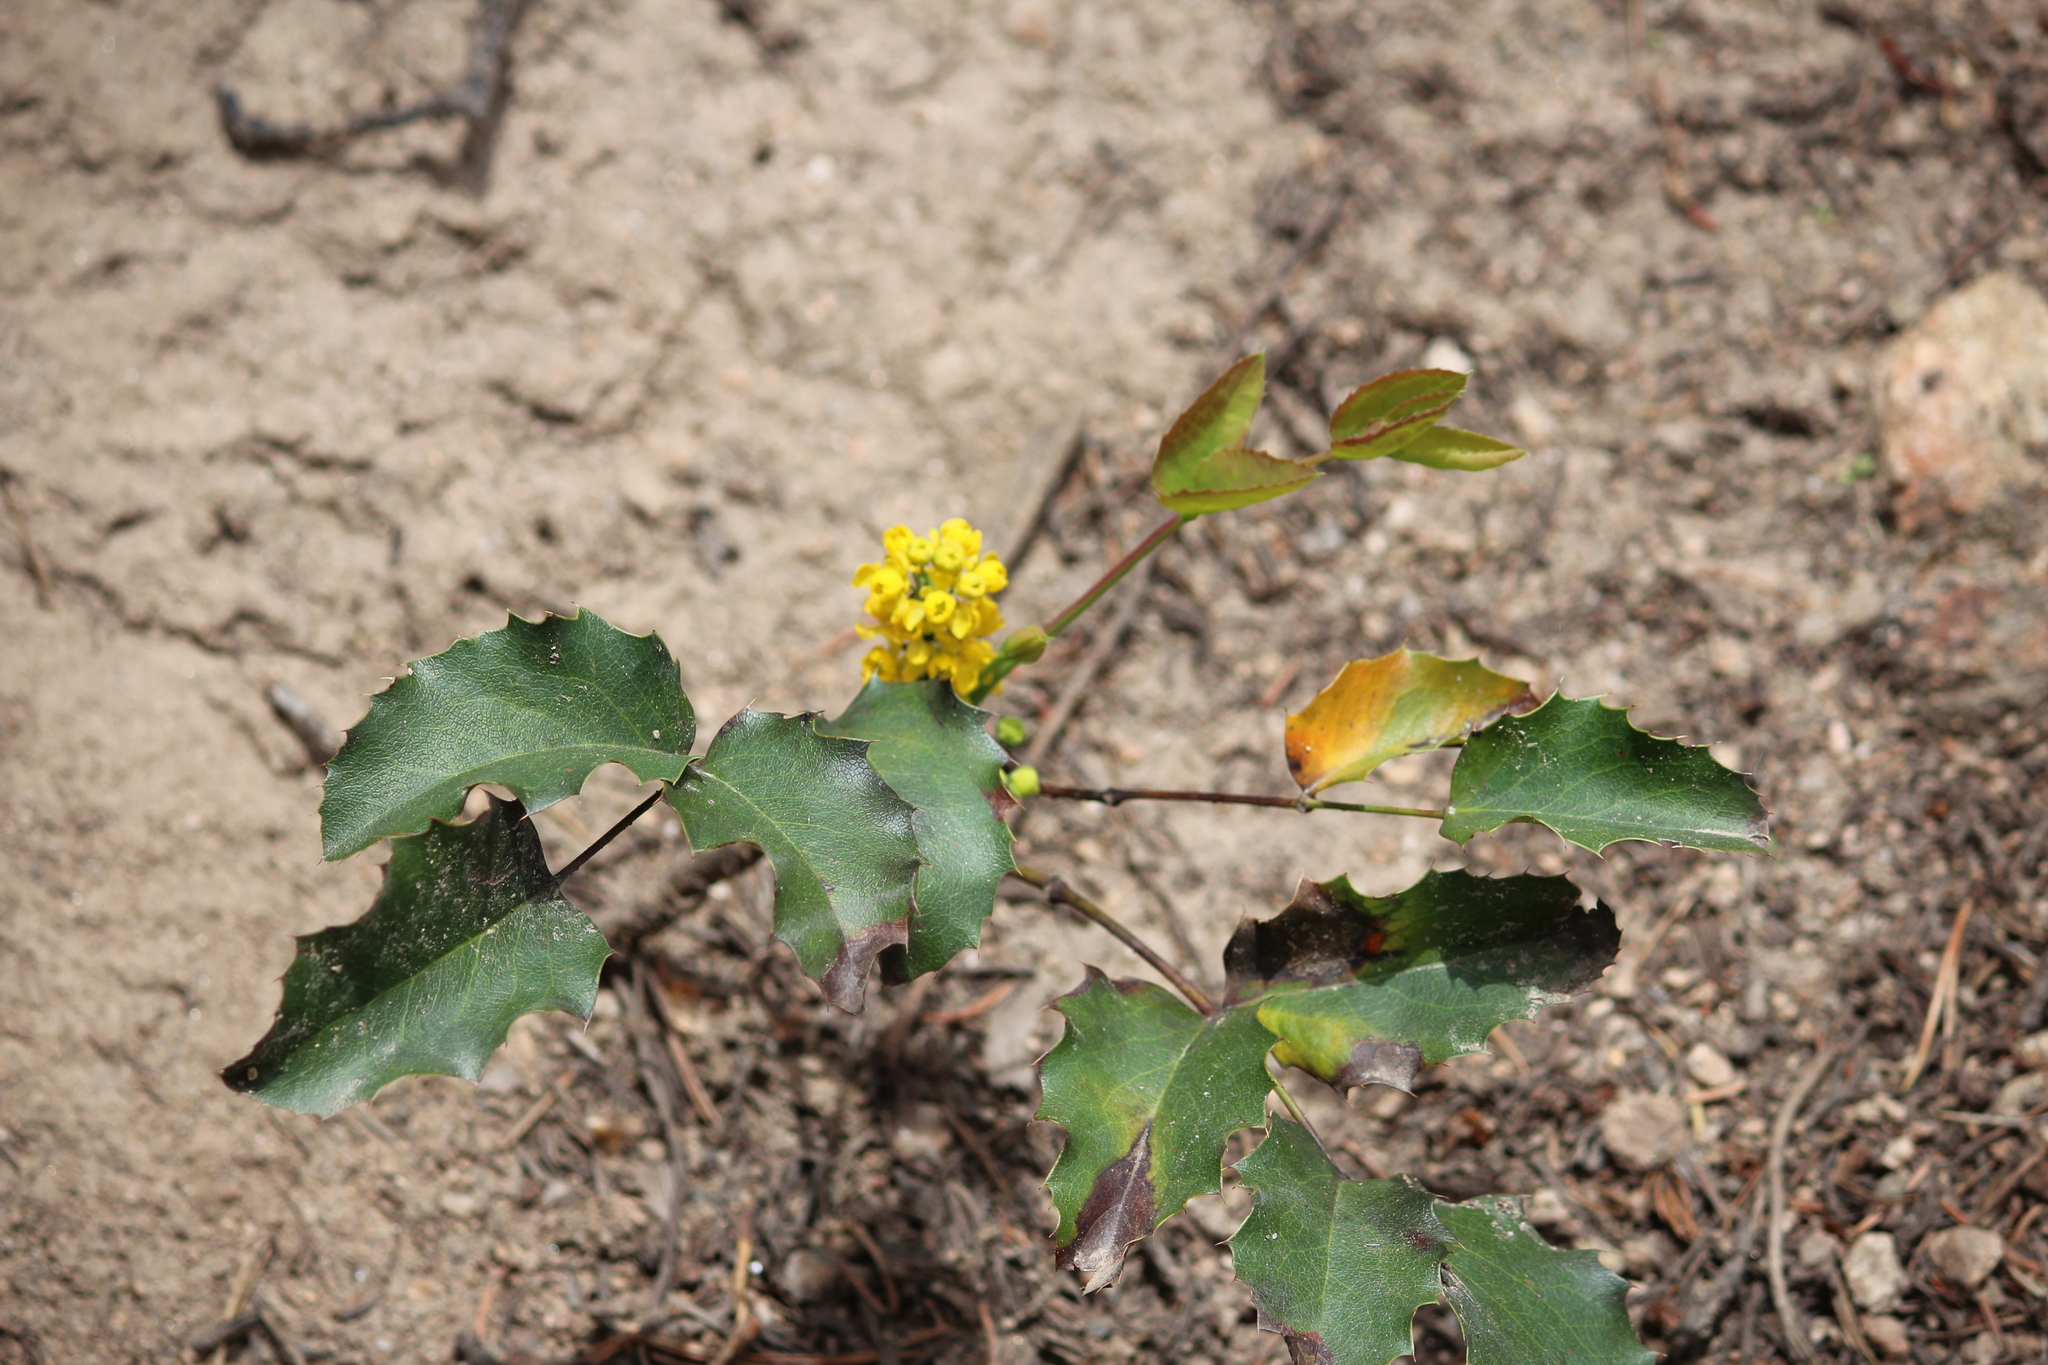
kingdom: Plantae
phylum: Tracheophyta
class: Magnoliopsida
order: Ranunculales
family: Berberidaceae
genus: Mahonia
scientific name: Mahonia repens
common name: Creeping oregon-grape
